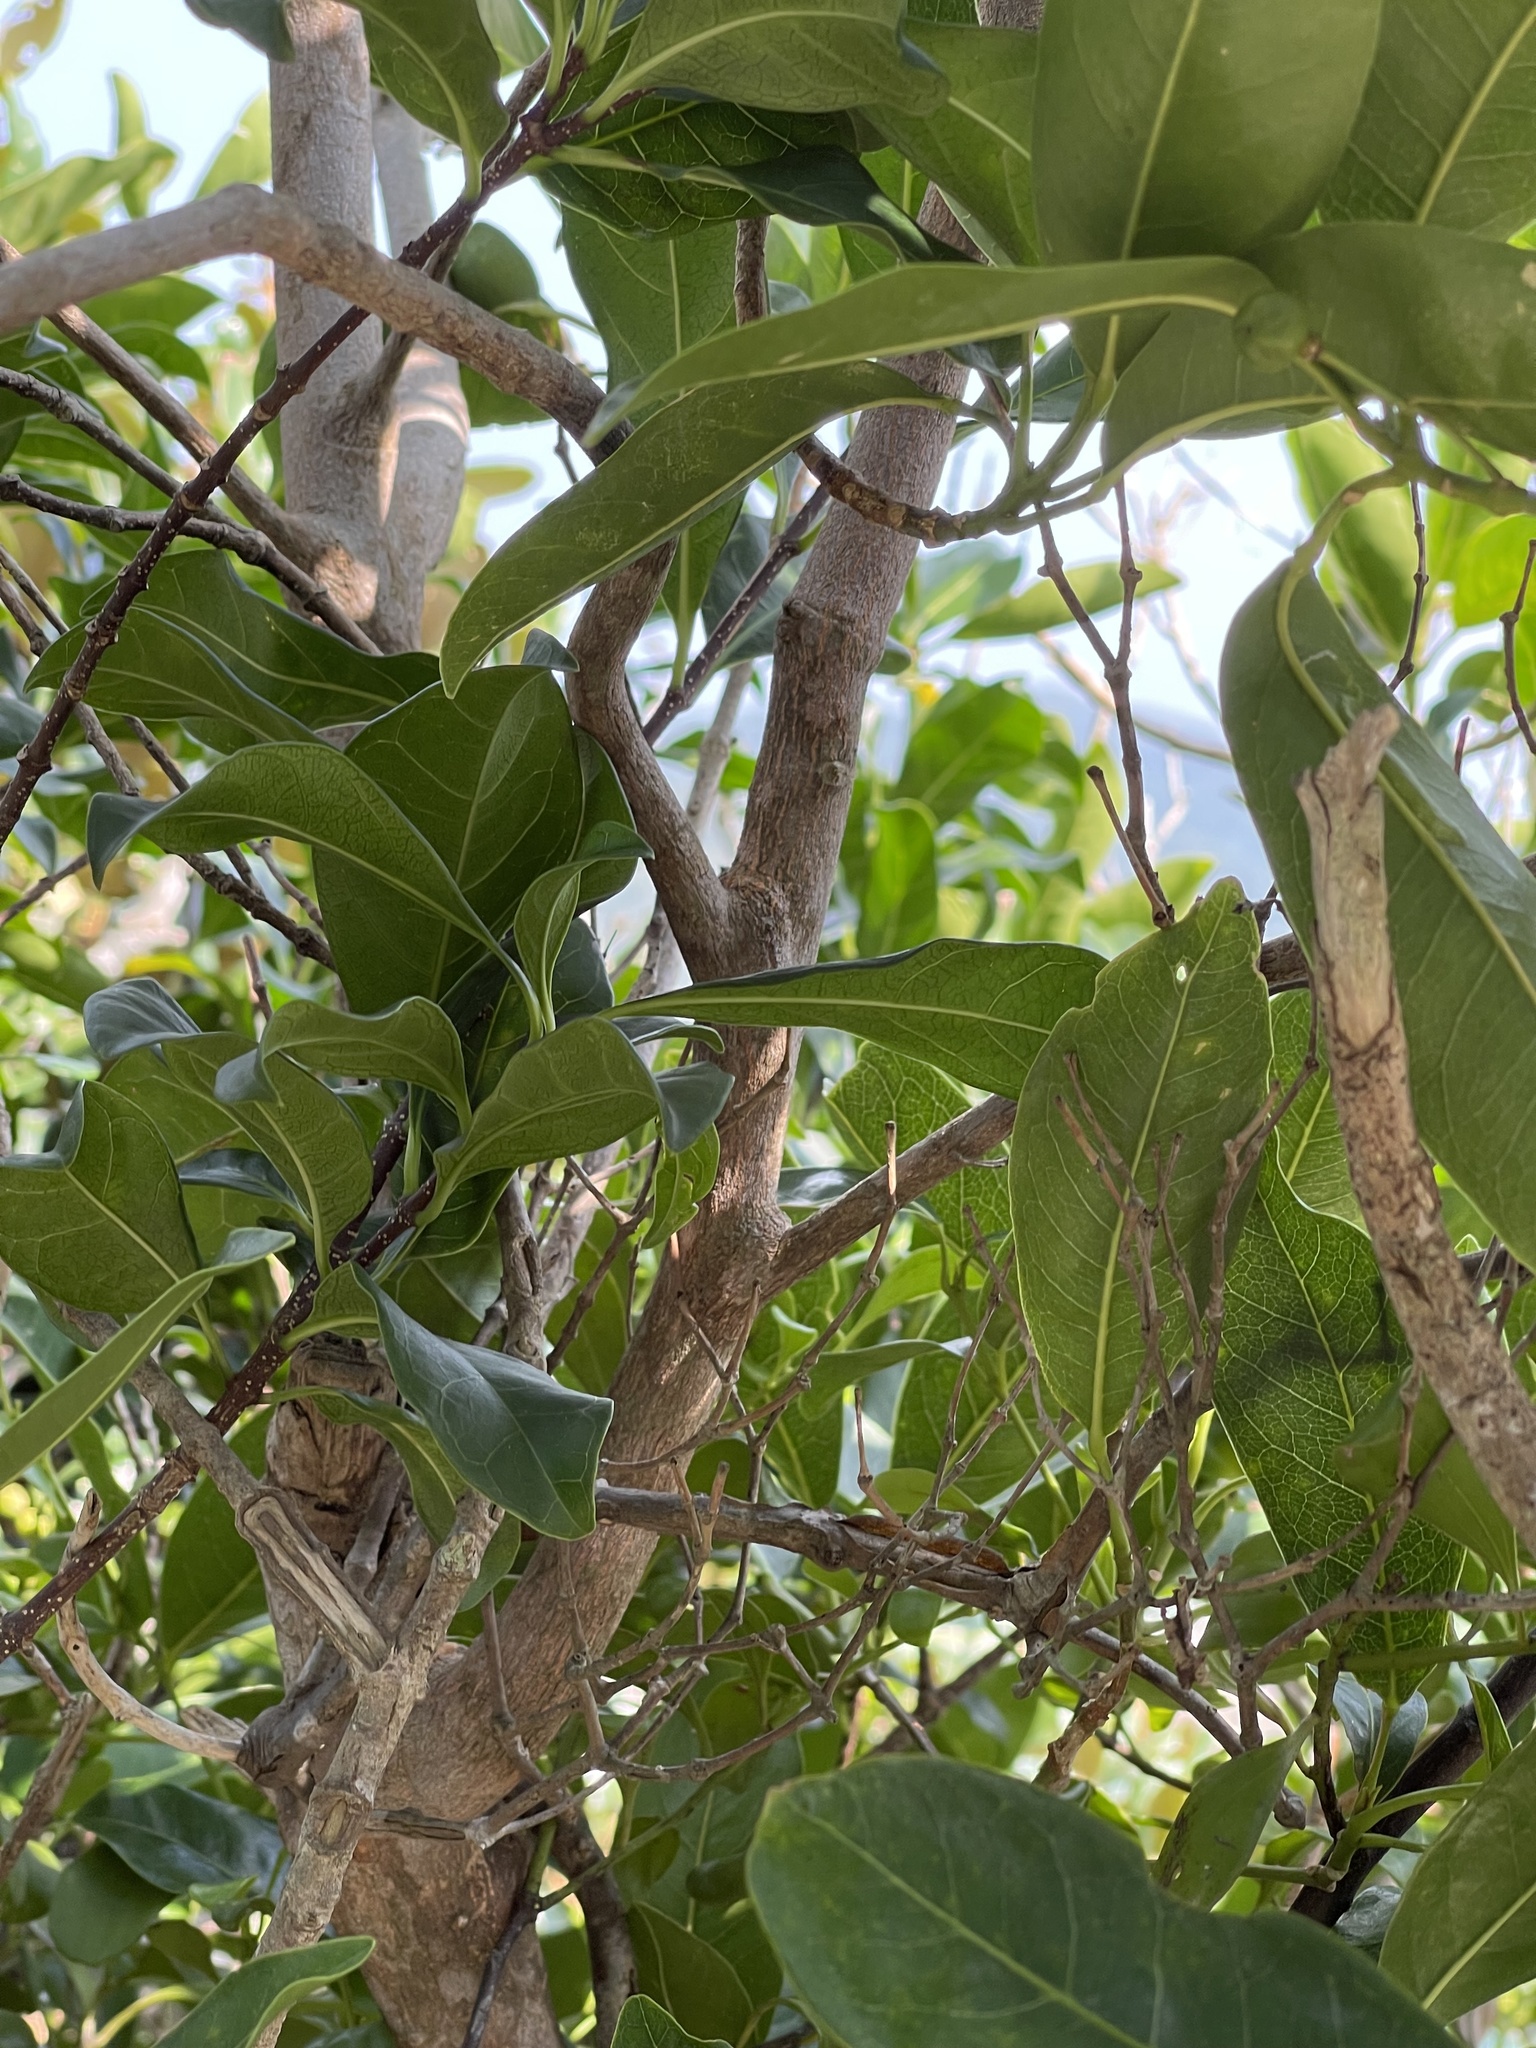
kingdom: Plantae
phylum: Tracheophyta
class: Magnoliopsida
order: Sapindales
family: Rutaceae
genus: Acronychia
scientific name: Acronychia pedunculata
